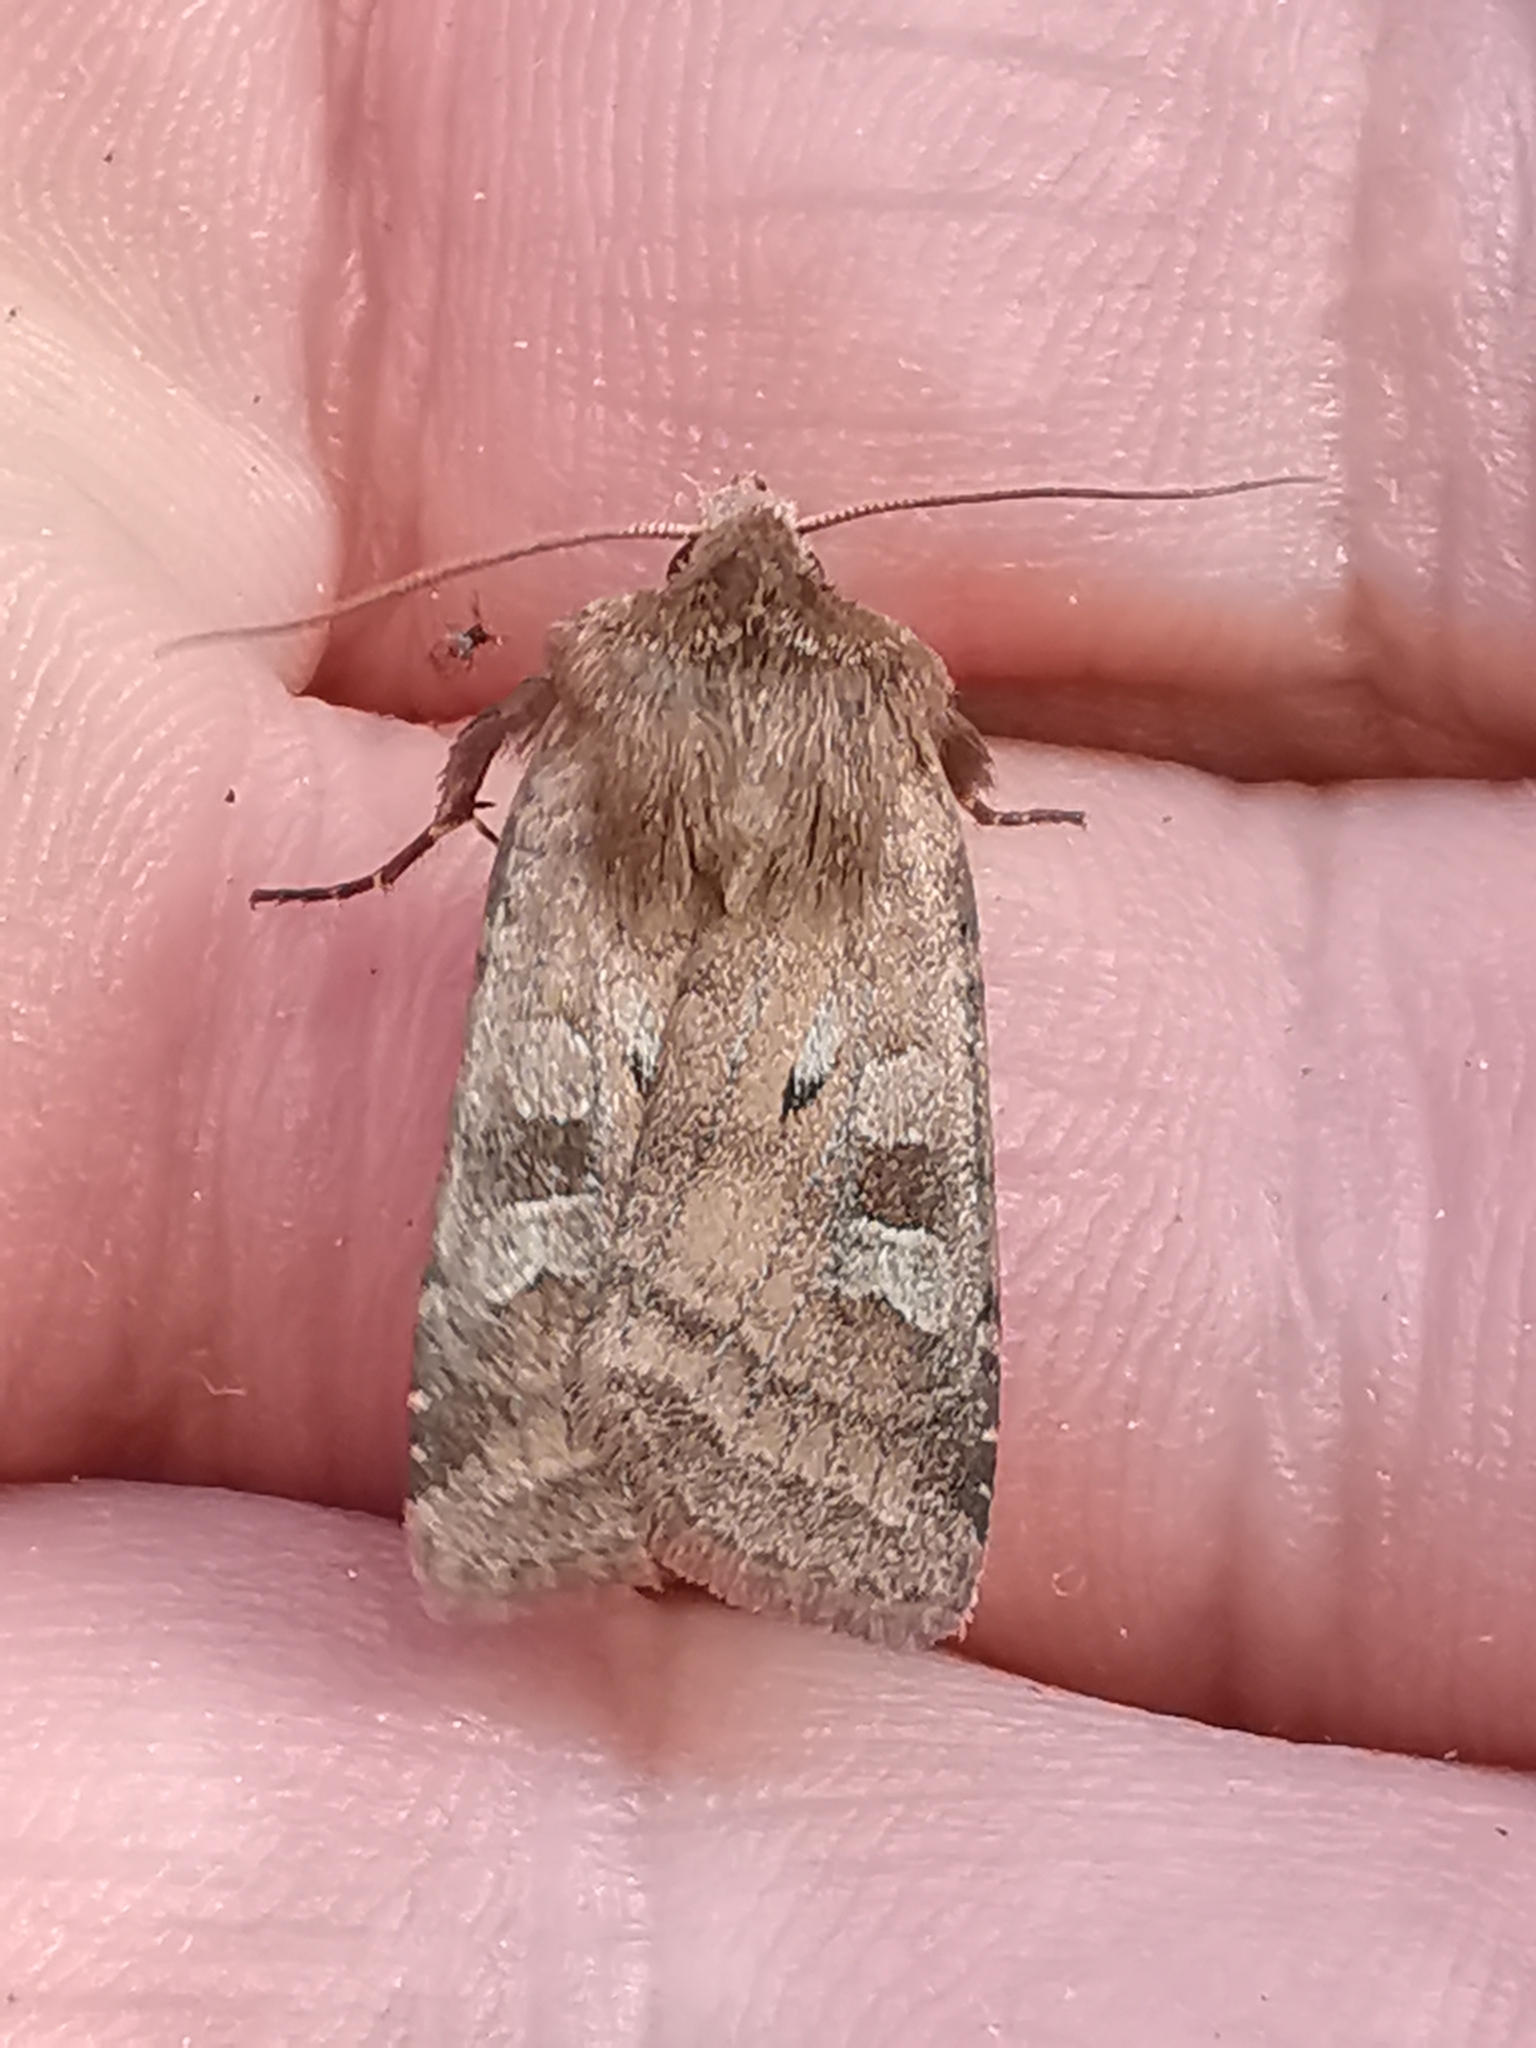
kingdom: Animalia
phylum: Arthropoda
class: Insecta
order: Lepidoptera
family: Noctuidae
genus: Diarsia
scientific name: Diarsia rubi
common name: Small square-spot
